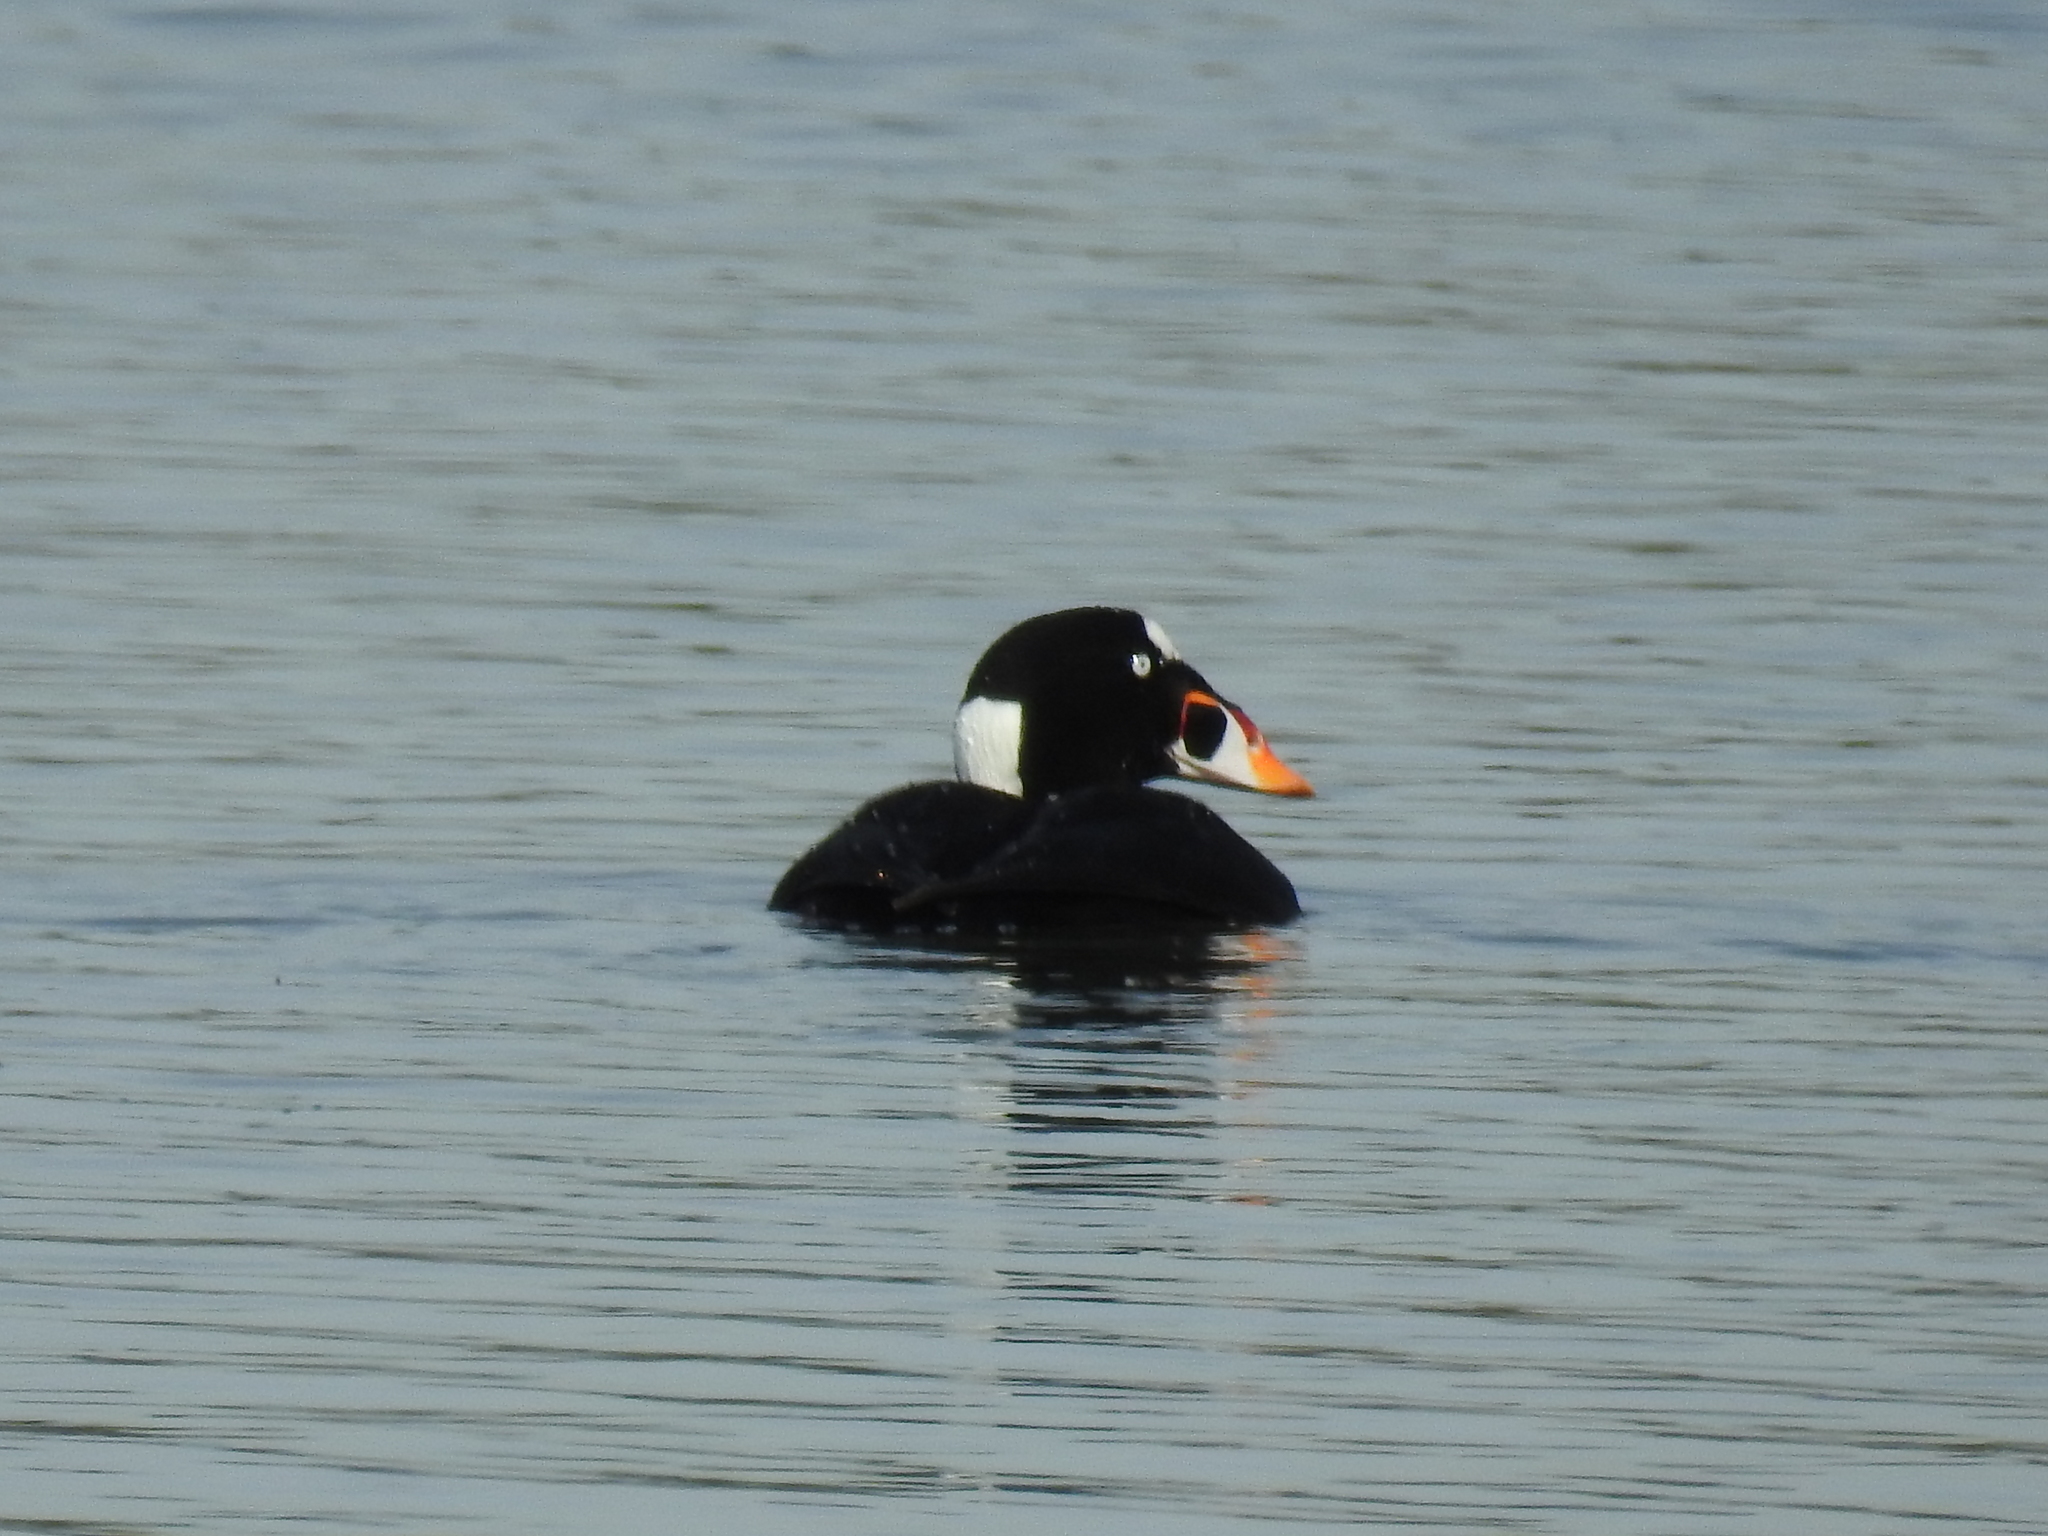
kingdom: Animalia
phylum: Chordata
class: Aves
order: Anseriformes
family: Anatidae
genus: Melanitta
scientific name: Melanitta perspicillata
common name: Surf scoter
